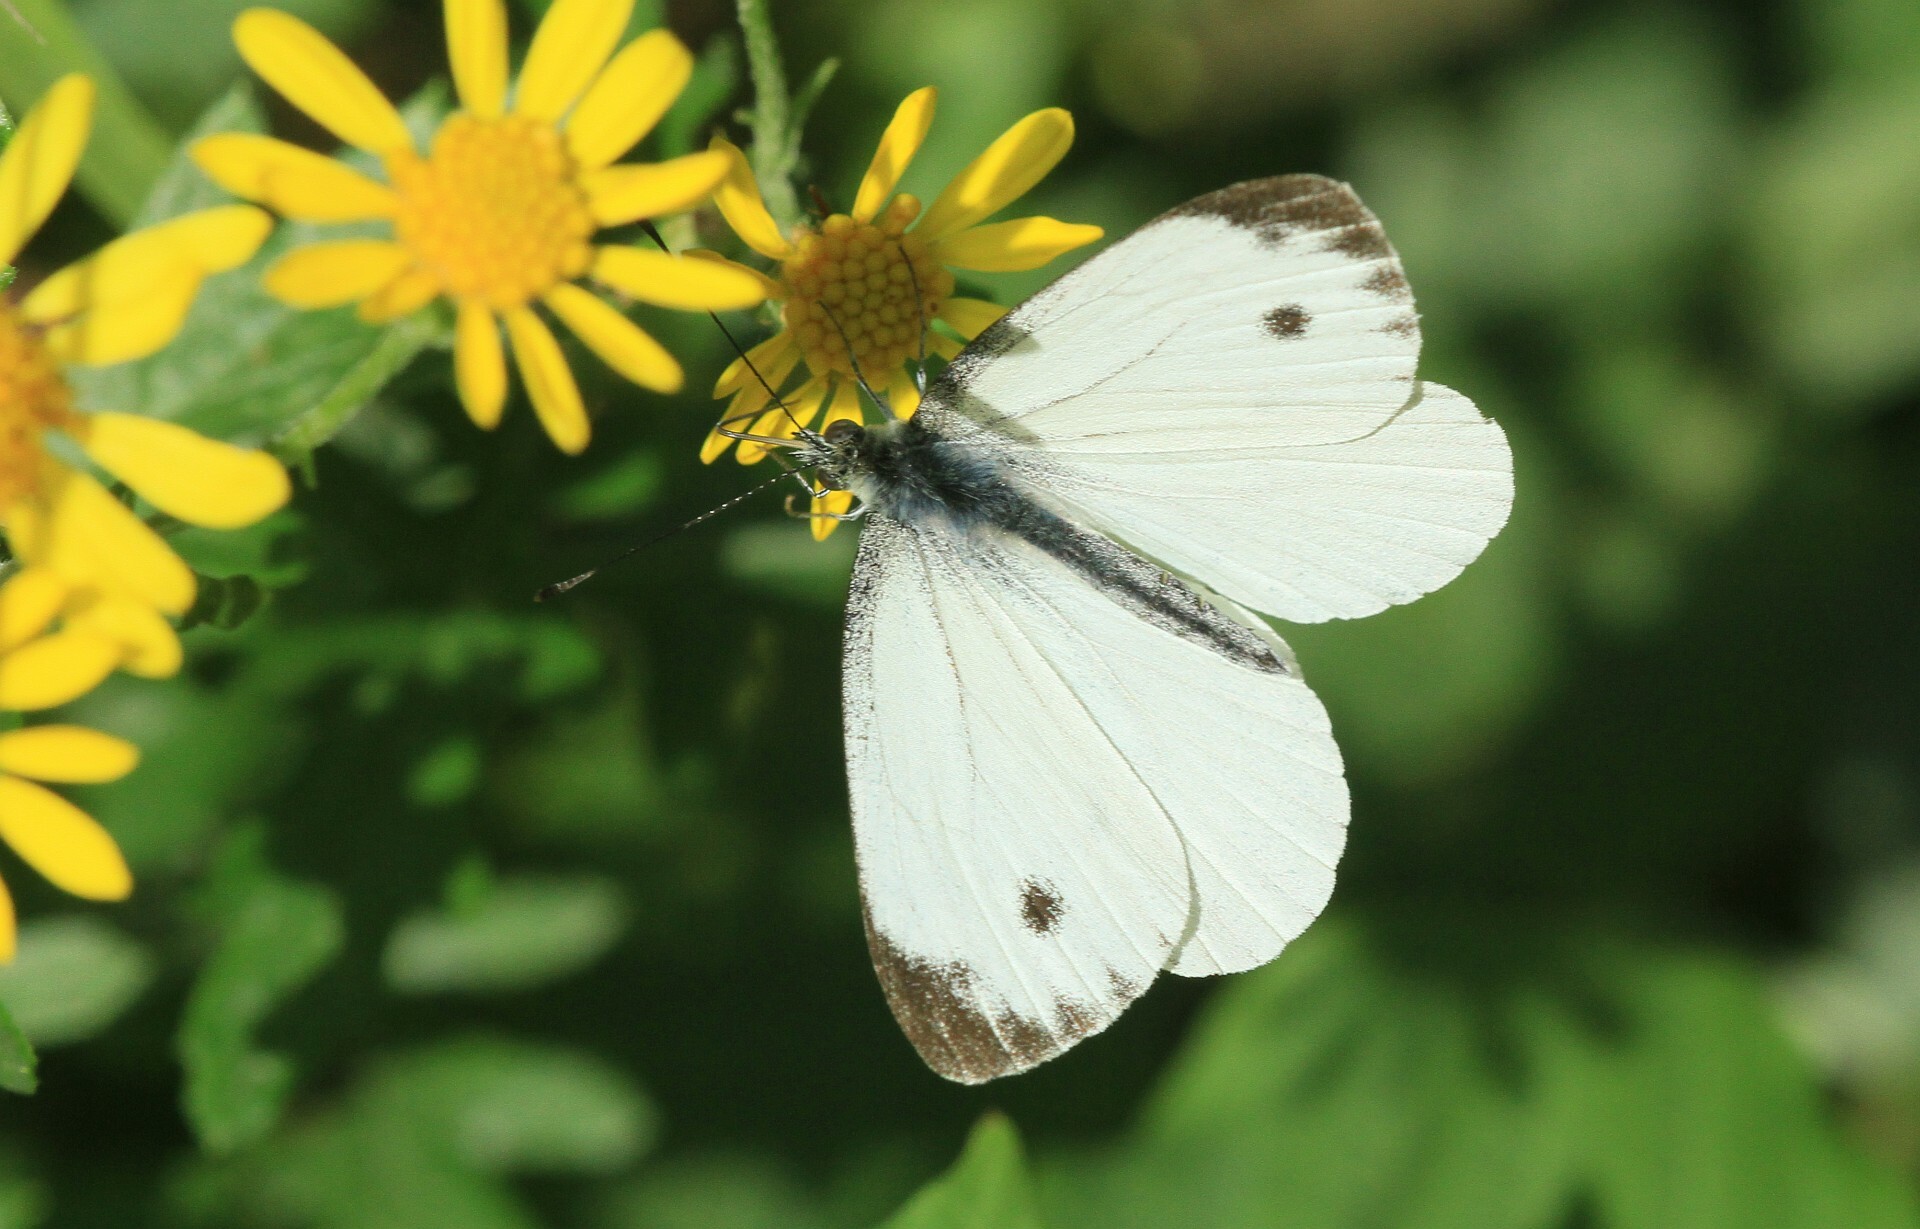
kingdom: Animalia
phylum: Arthropoda
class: Insecta
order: Lepidoptera
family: Pieridae
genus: Pieris
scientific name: Pieris napi
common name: Green-veined white
